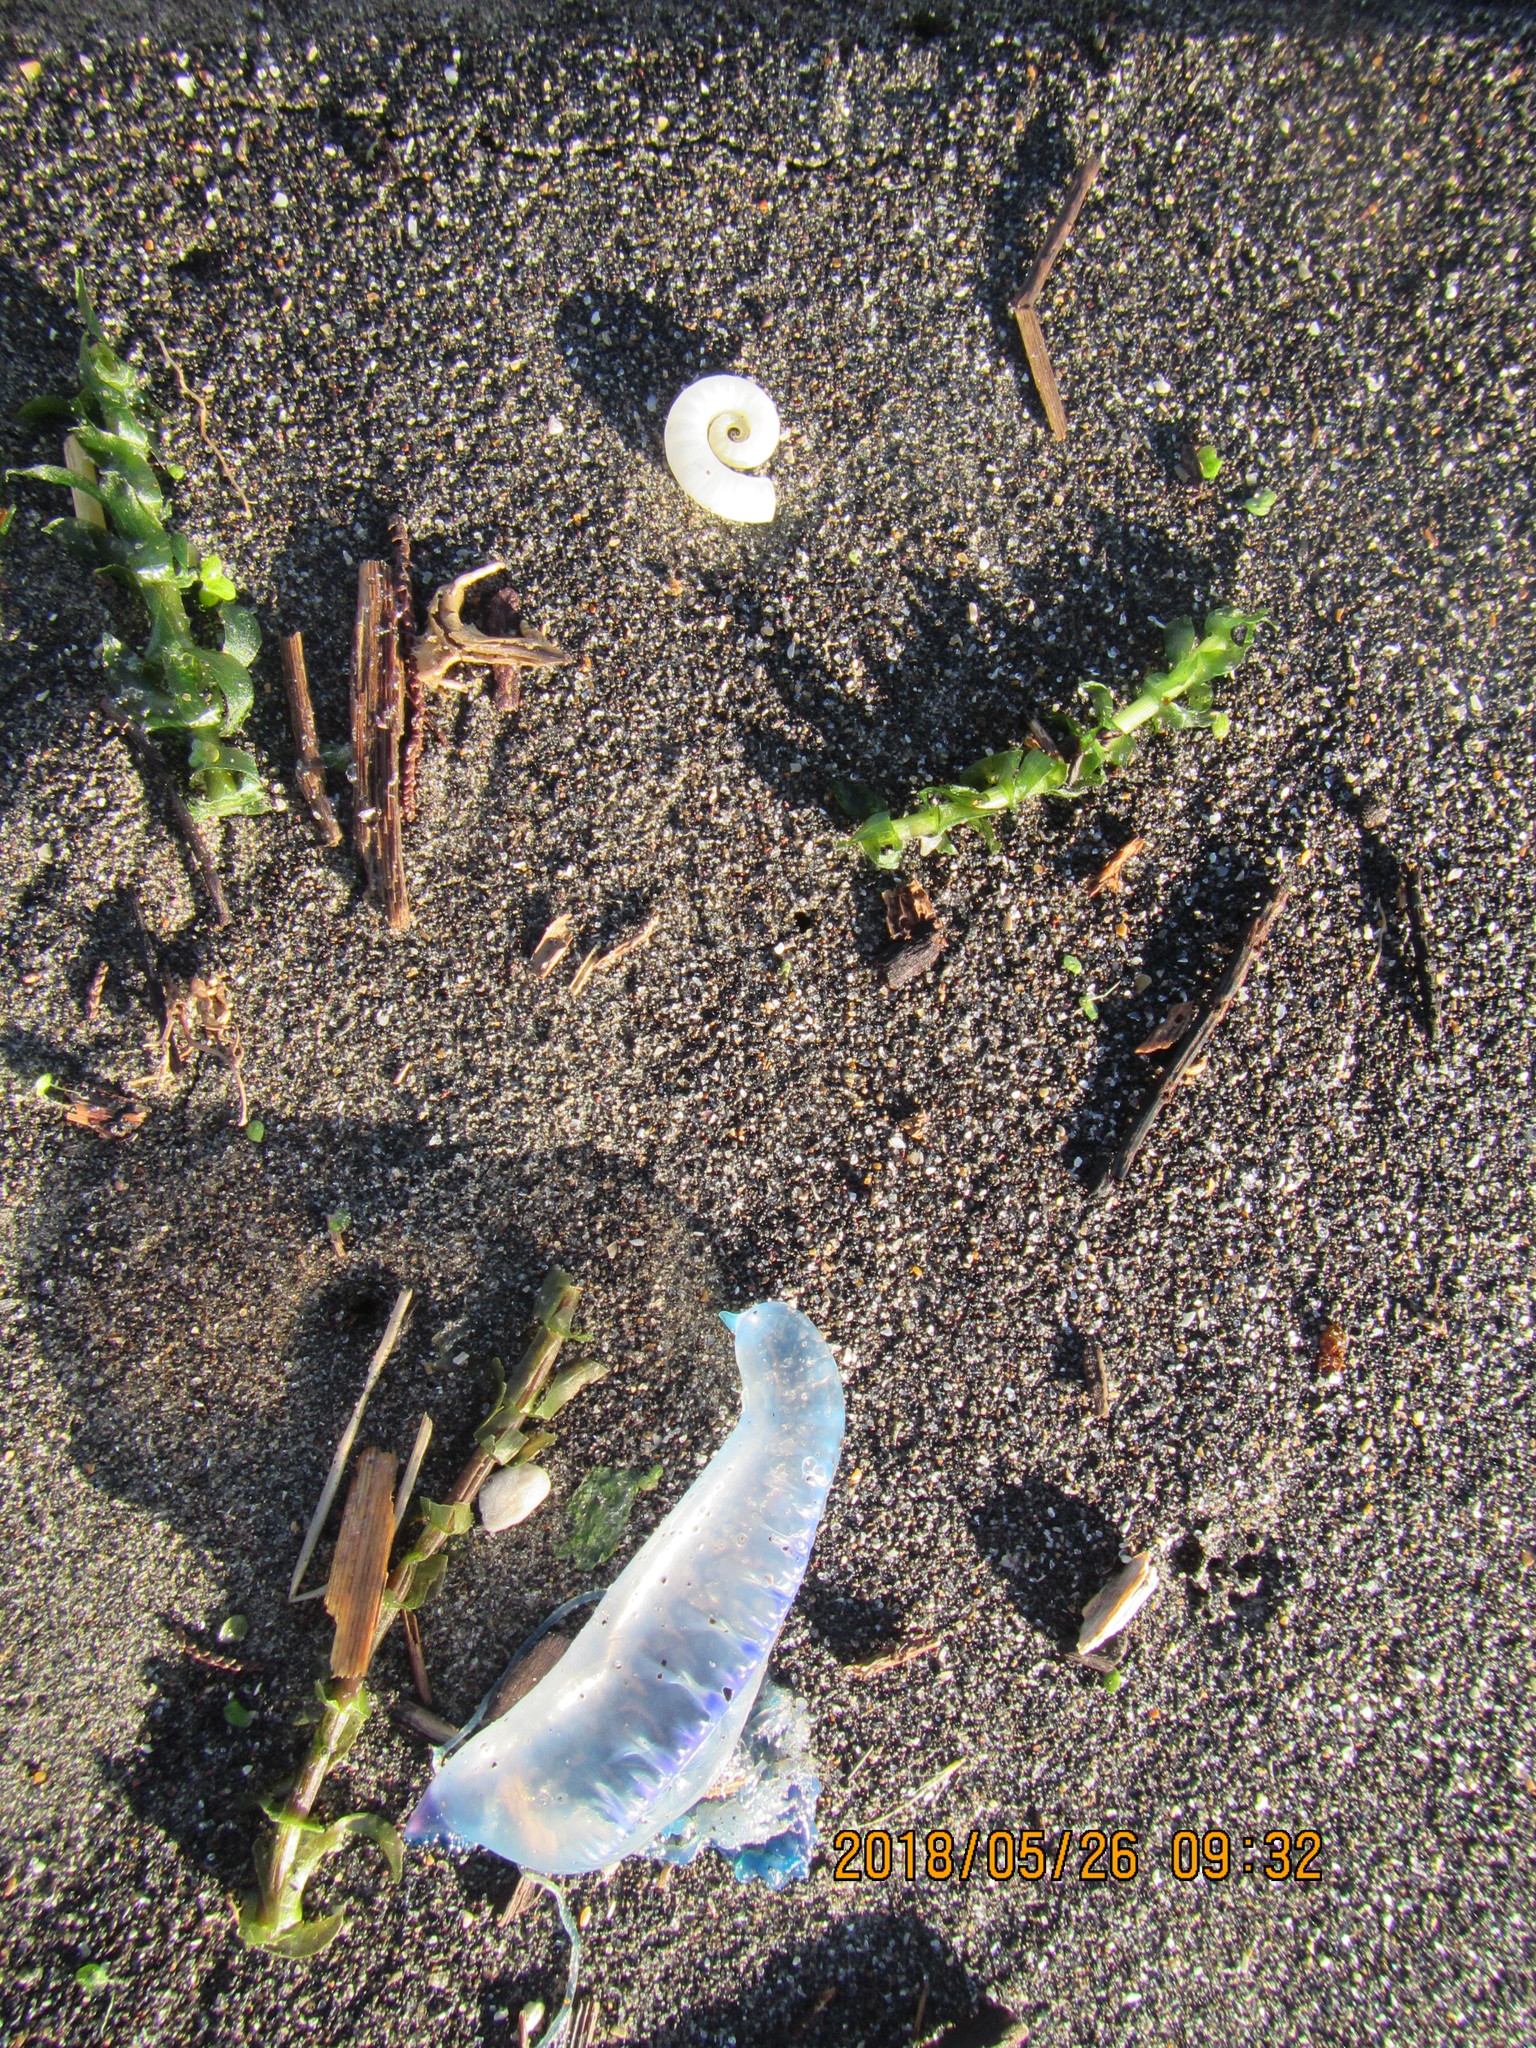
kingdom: Animalia
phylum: Cnidaria
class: Hydrozoa
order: Siphonophorae
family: Physaliidae
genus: Physalia
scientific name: Physalia physalis
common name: Portuguese man-of-war
